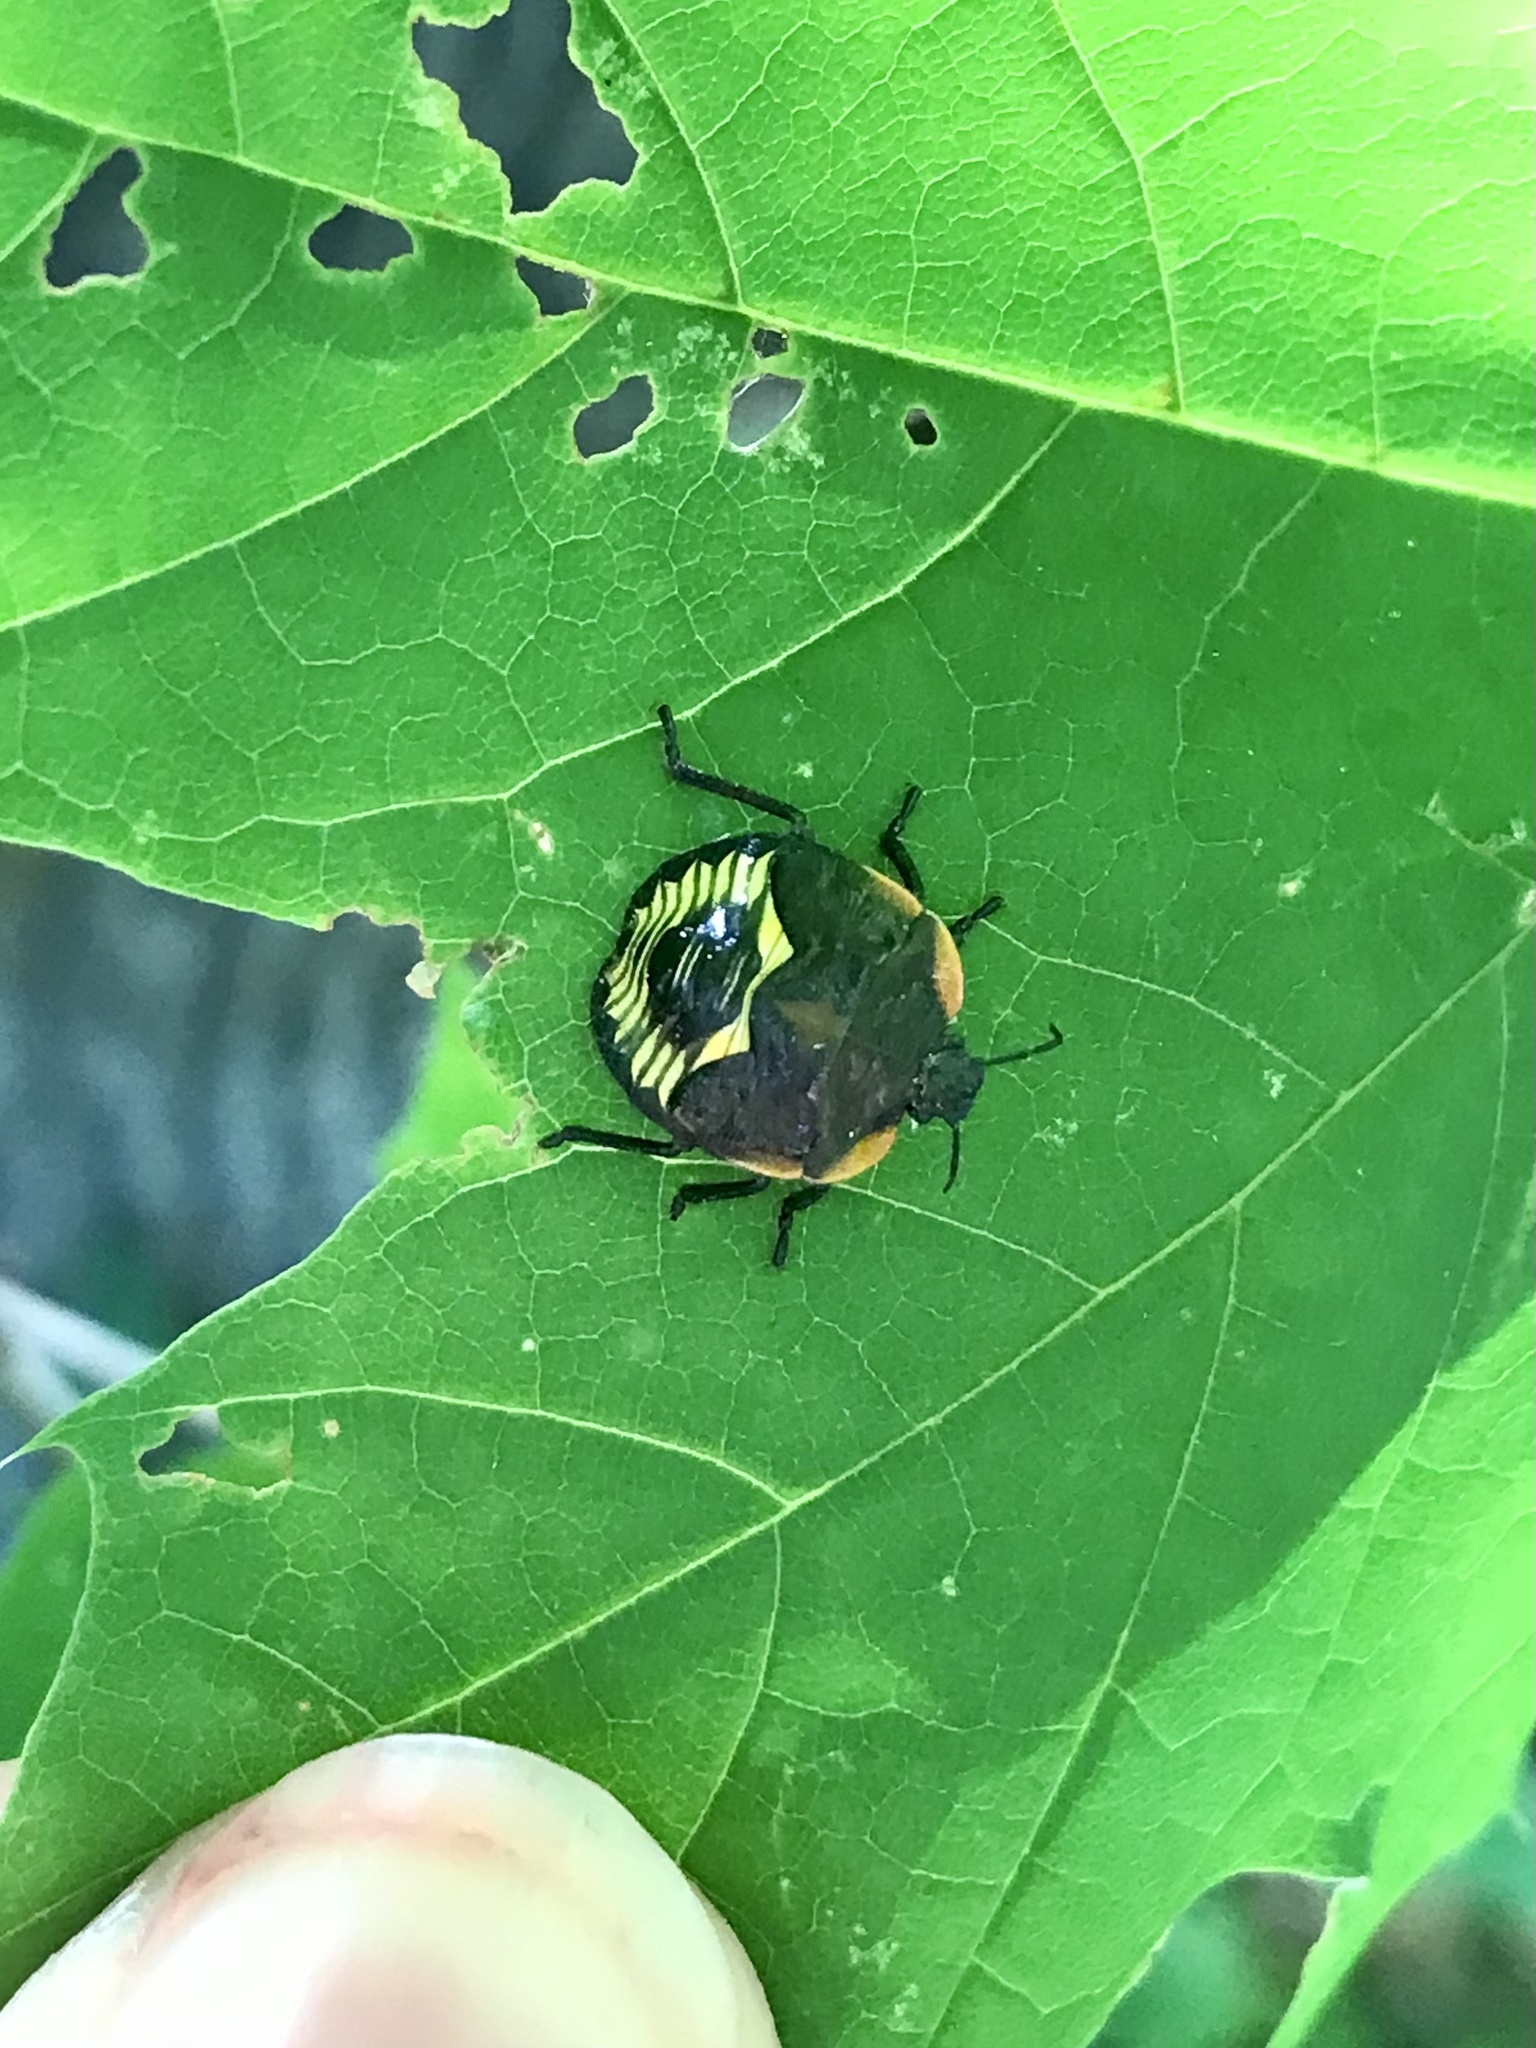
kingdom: Animalia
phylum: Arthropoda
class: Insecta
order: Hemiptera
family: Pentatomidae
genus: Chinavia
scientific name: Chinavia hilaris
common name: Green stink bug
